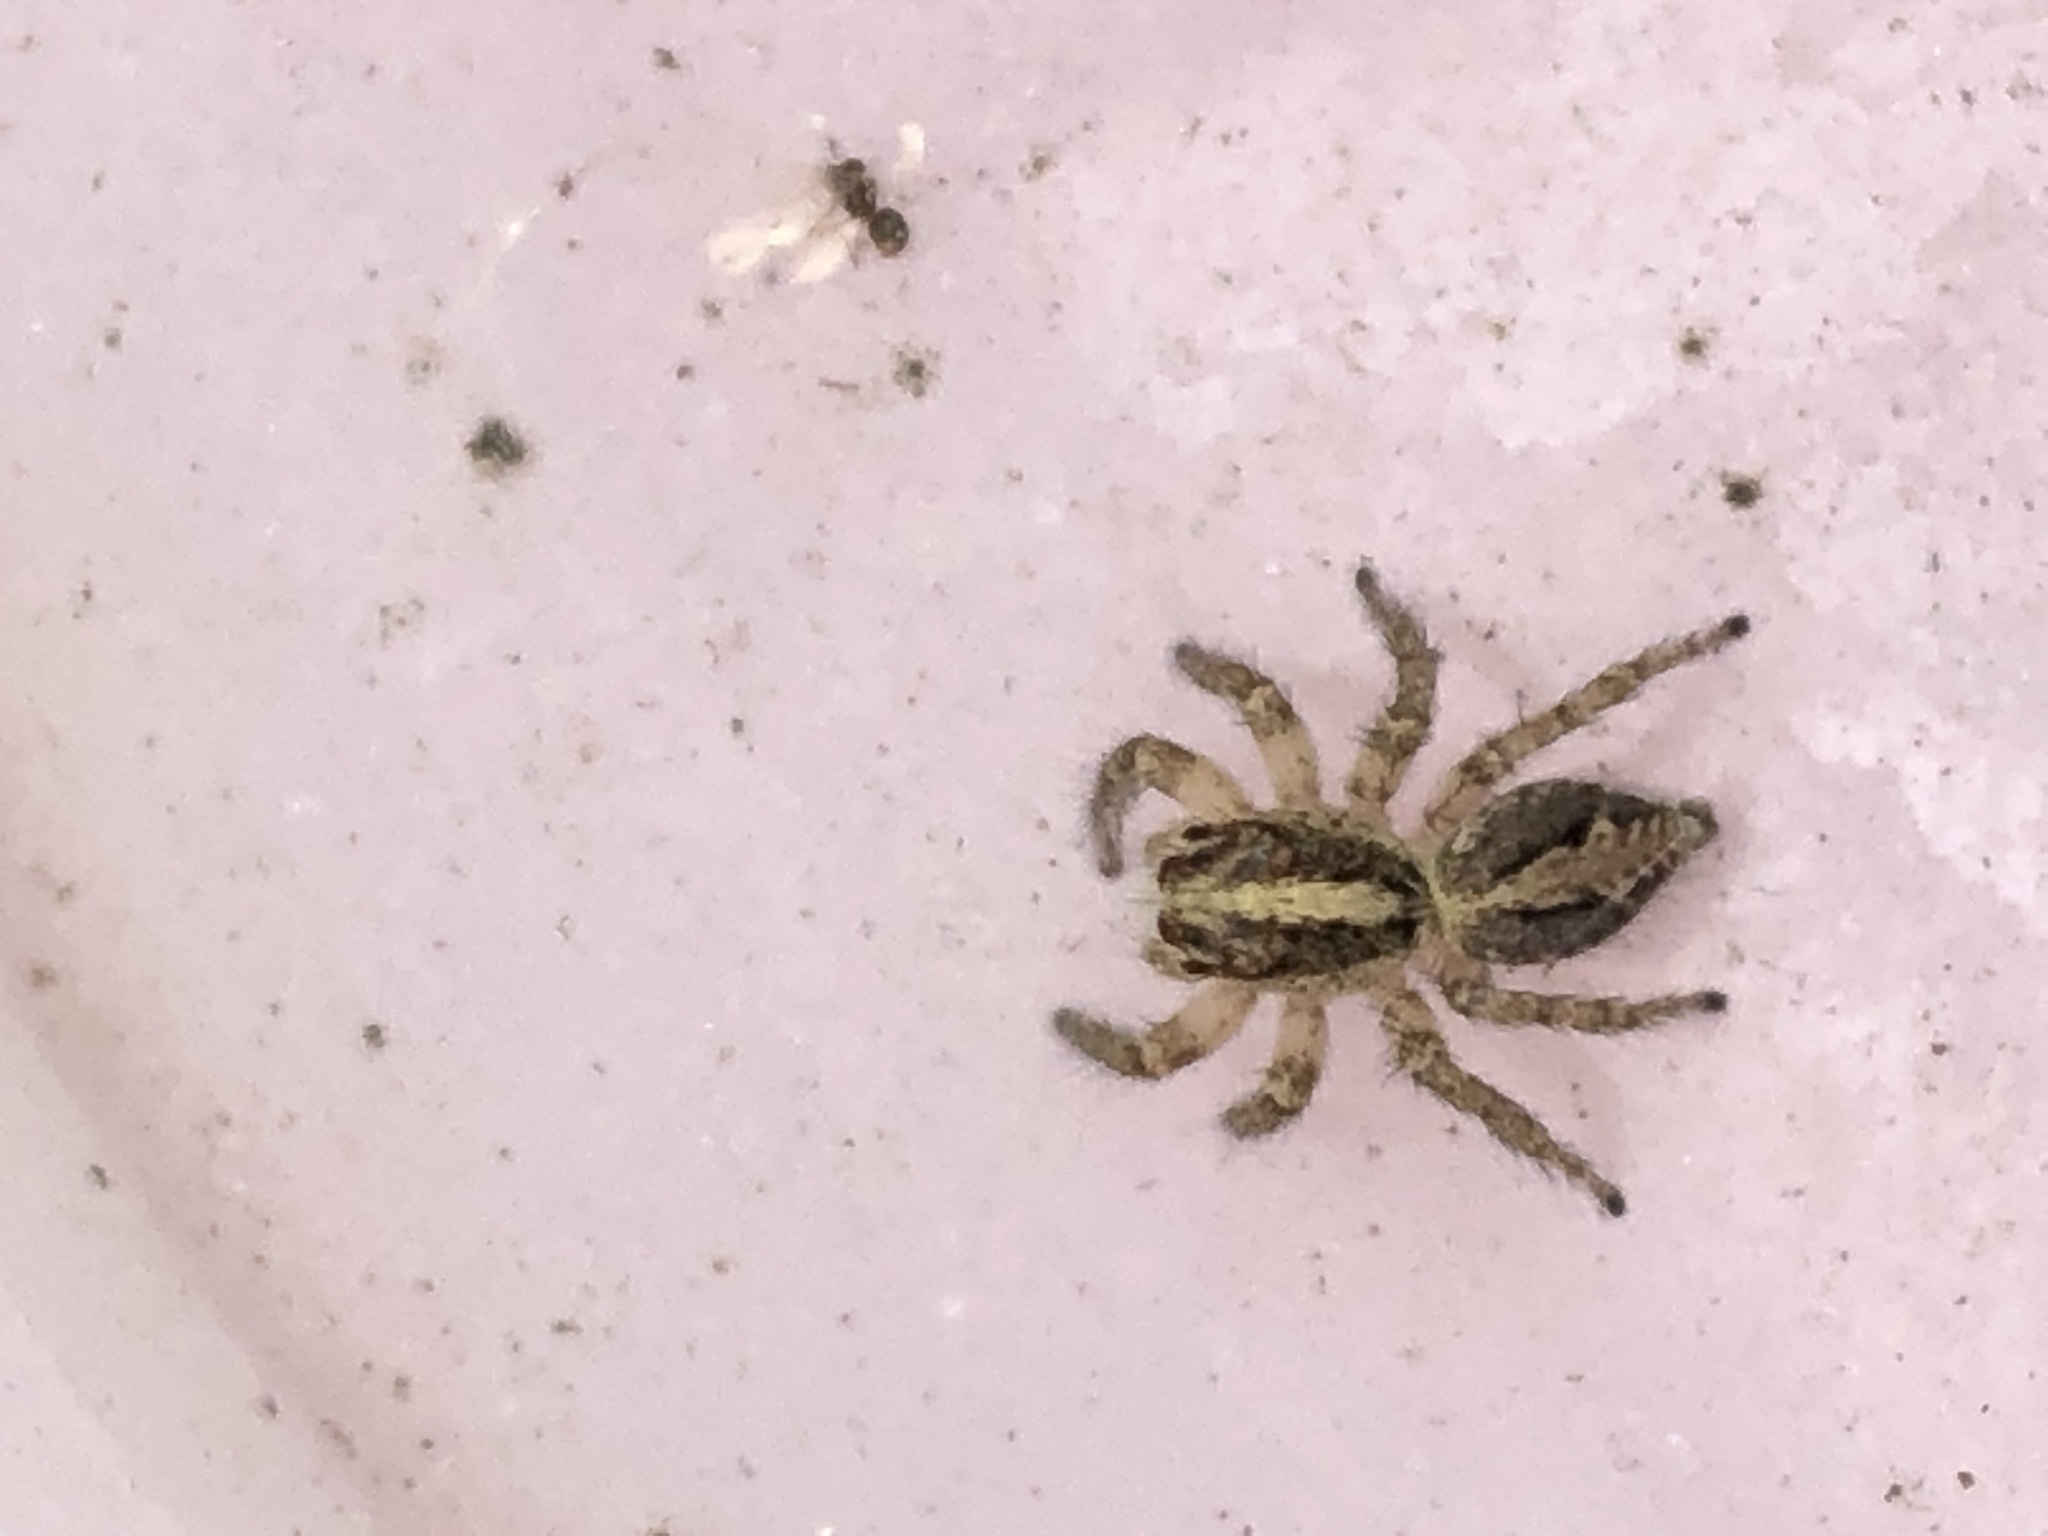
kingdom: Animalia
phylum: Arthropoda
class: Arachnida
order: Araneae
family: Salticidae
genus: Frigga
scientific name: Frigga crocuta
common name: Jumping spiders
